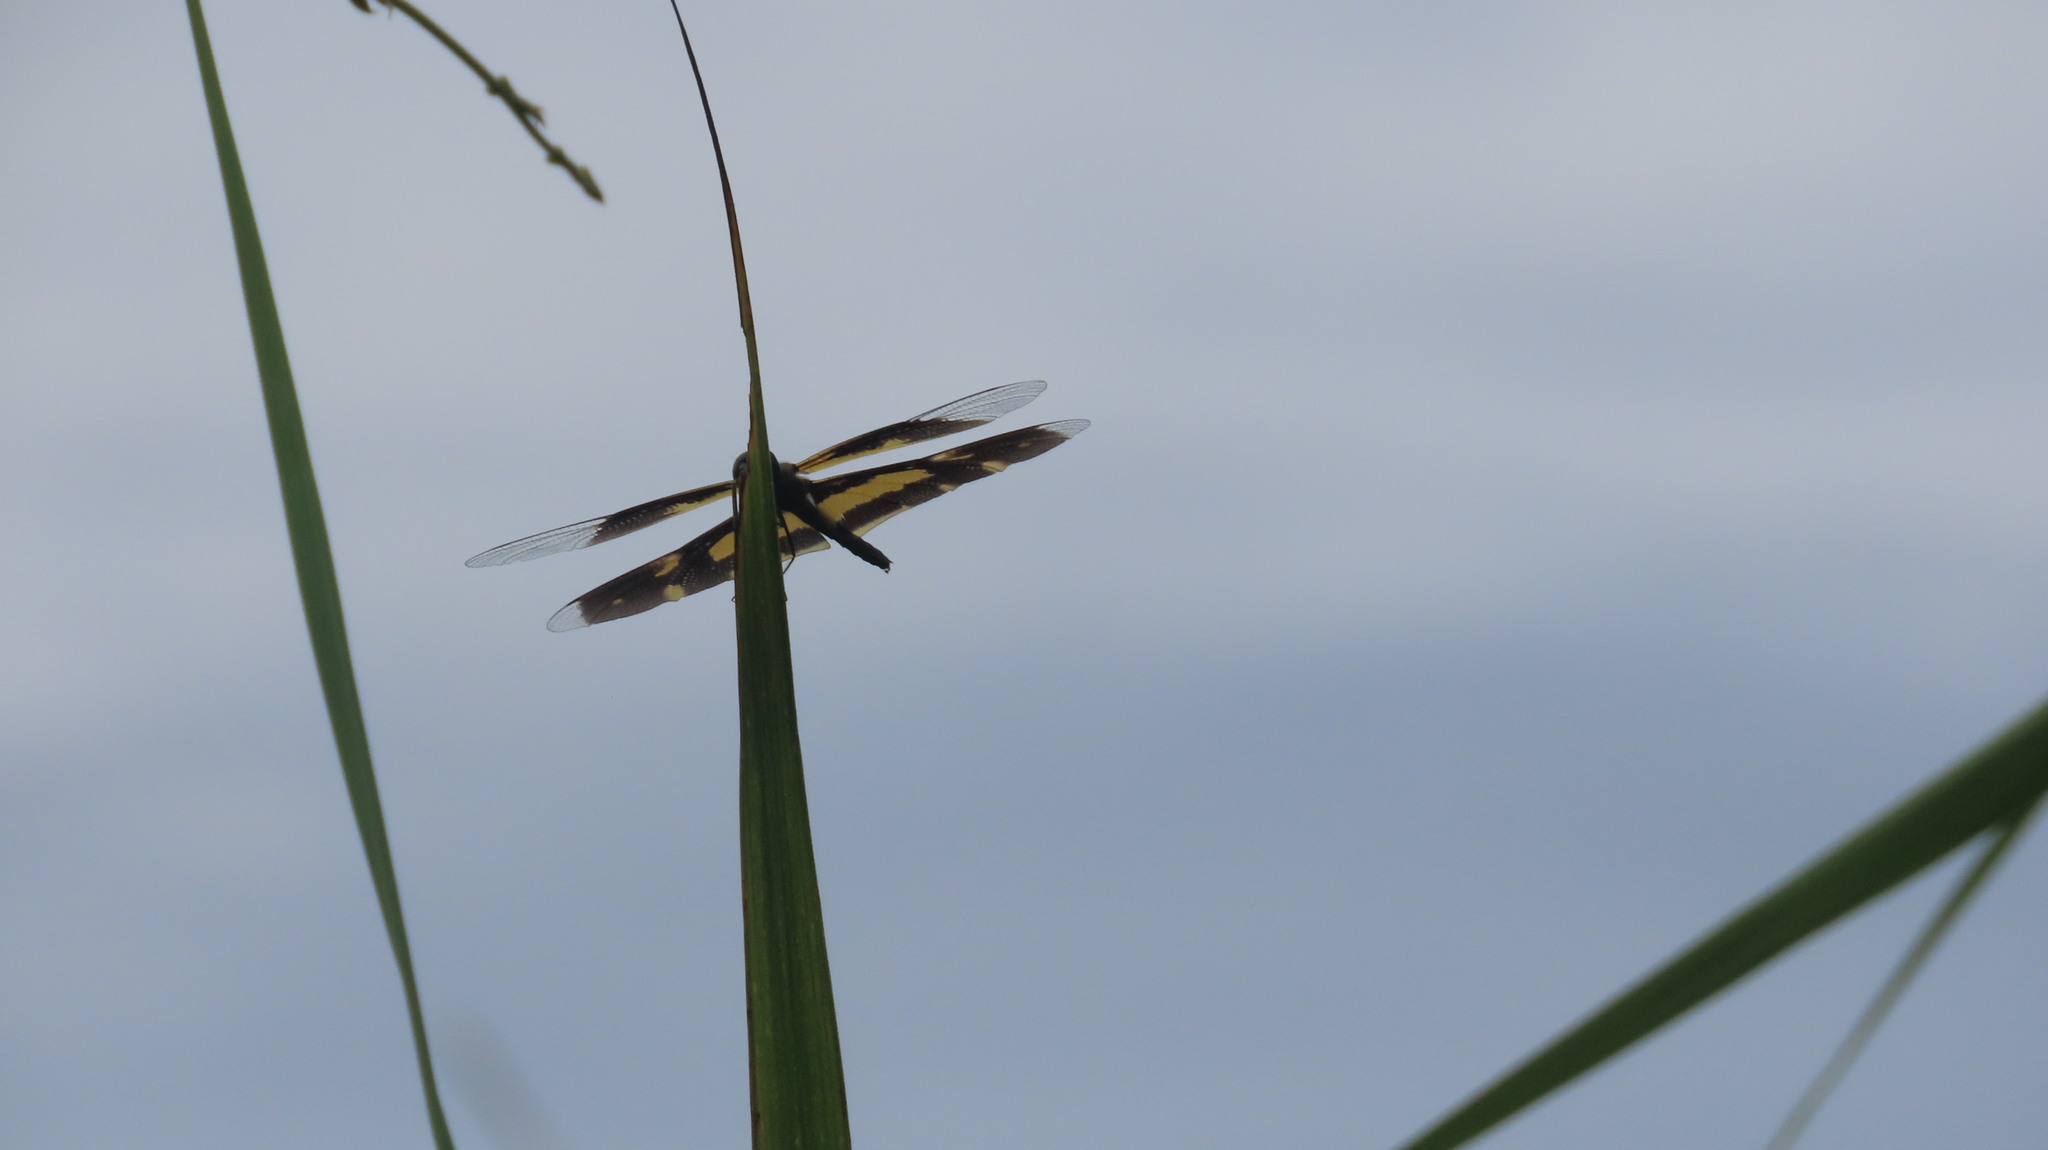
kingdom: Animalia
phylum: Arthropoda
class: Insecta
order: Odonata
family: Libellulidae
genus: Rhyothemis
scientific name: Rhyothemis variegata
